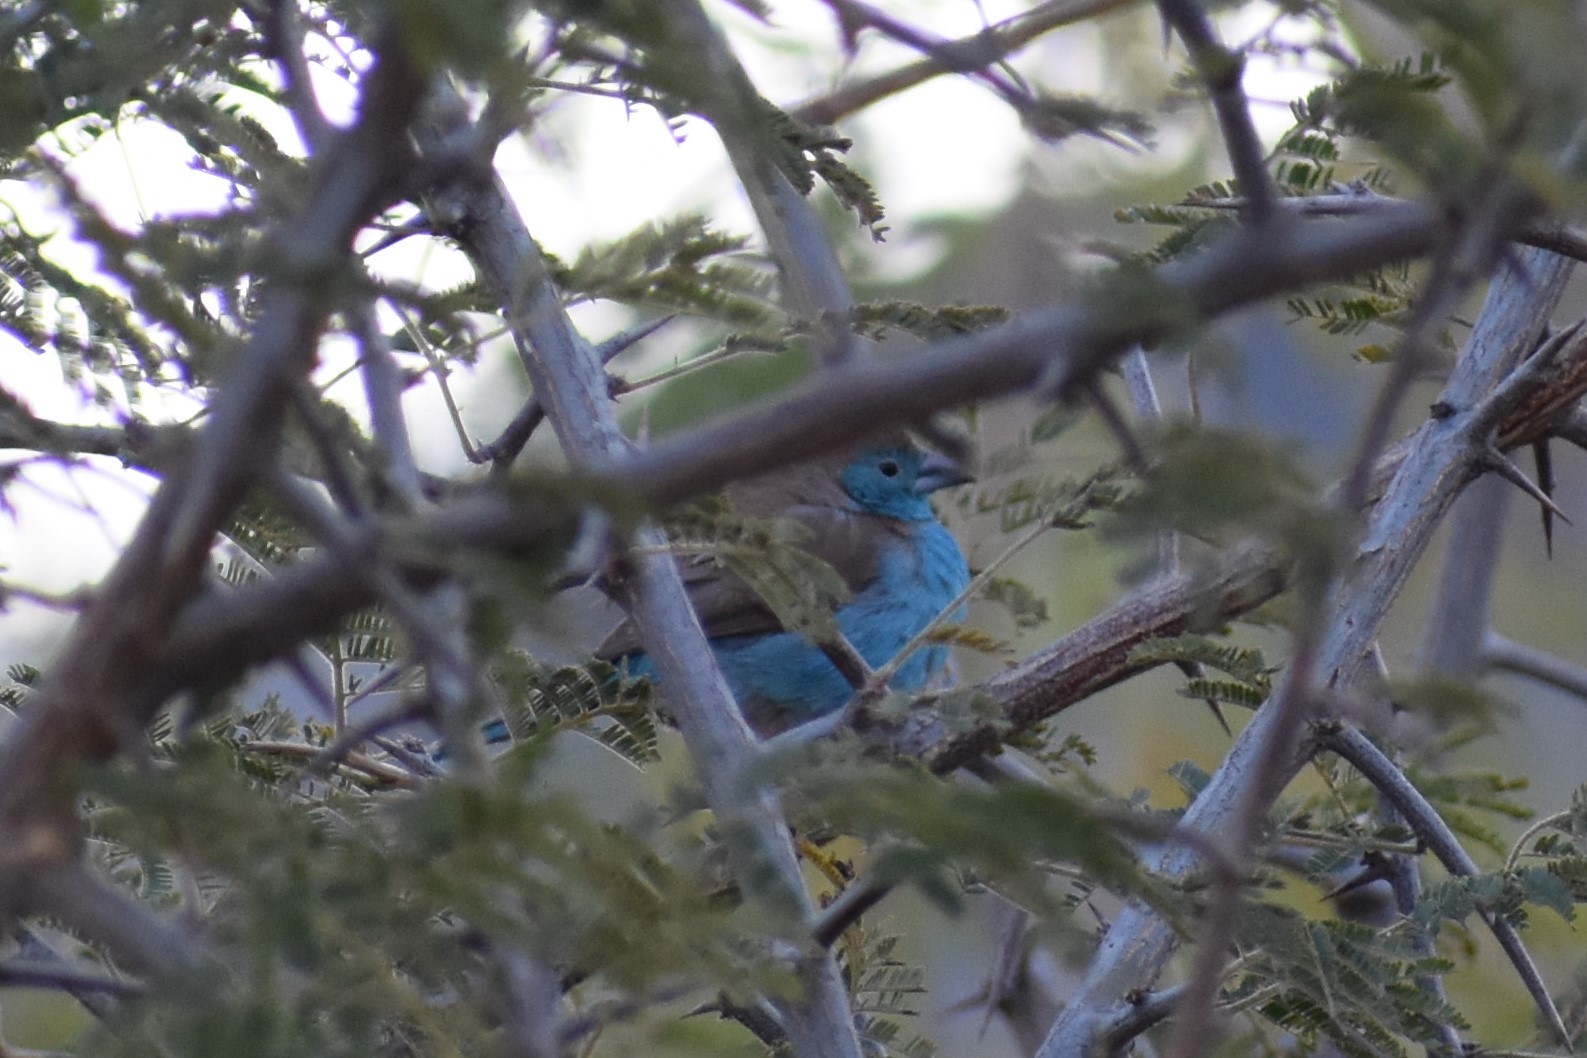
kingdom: Animalia
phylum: Chordata
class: Aves
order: Passeriformes
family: Estrildidae
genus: Uraeginthus
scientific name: Uraeginthus angolensis
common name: Blue waxbill
